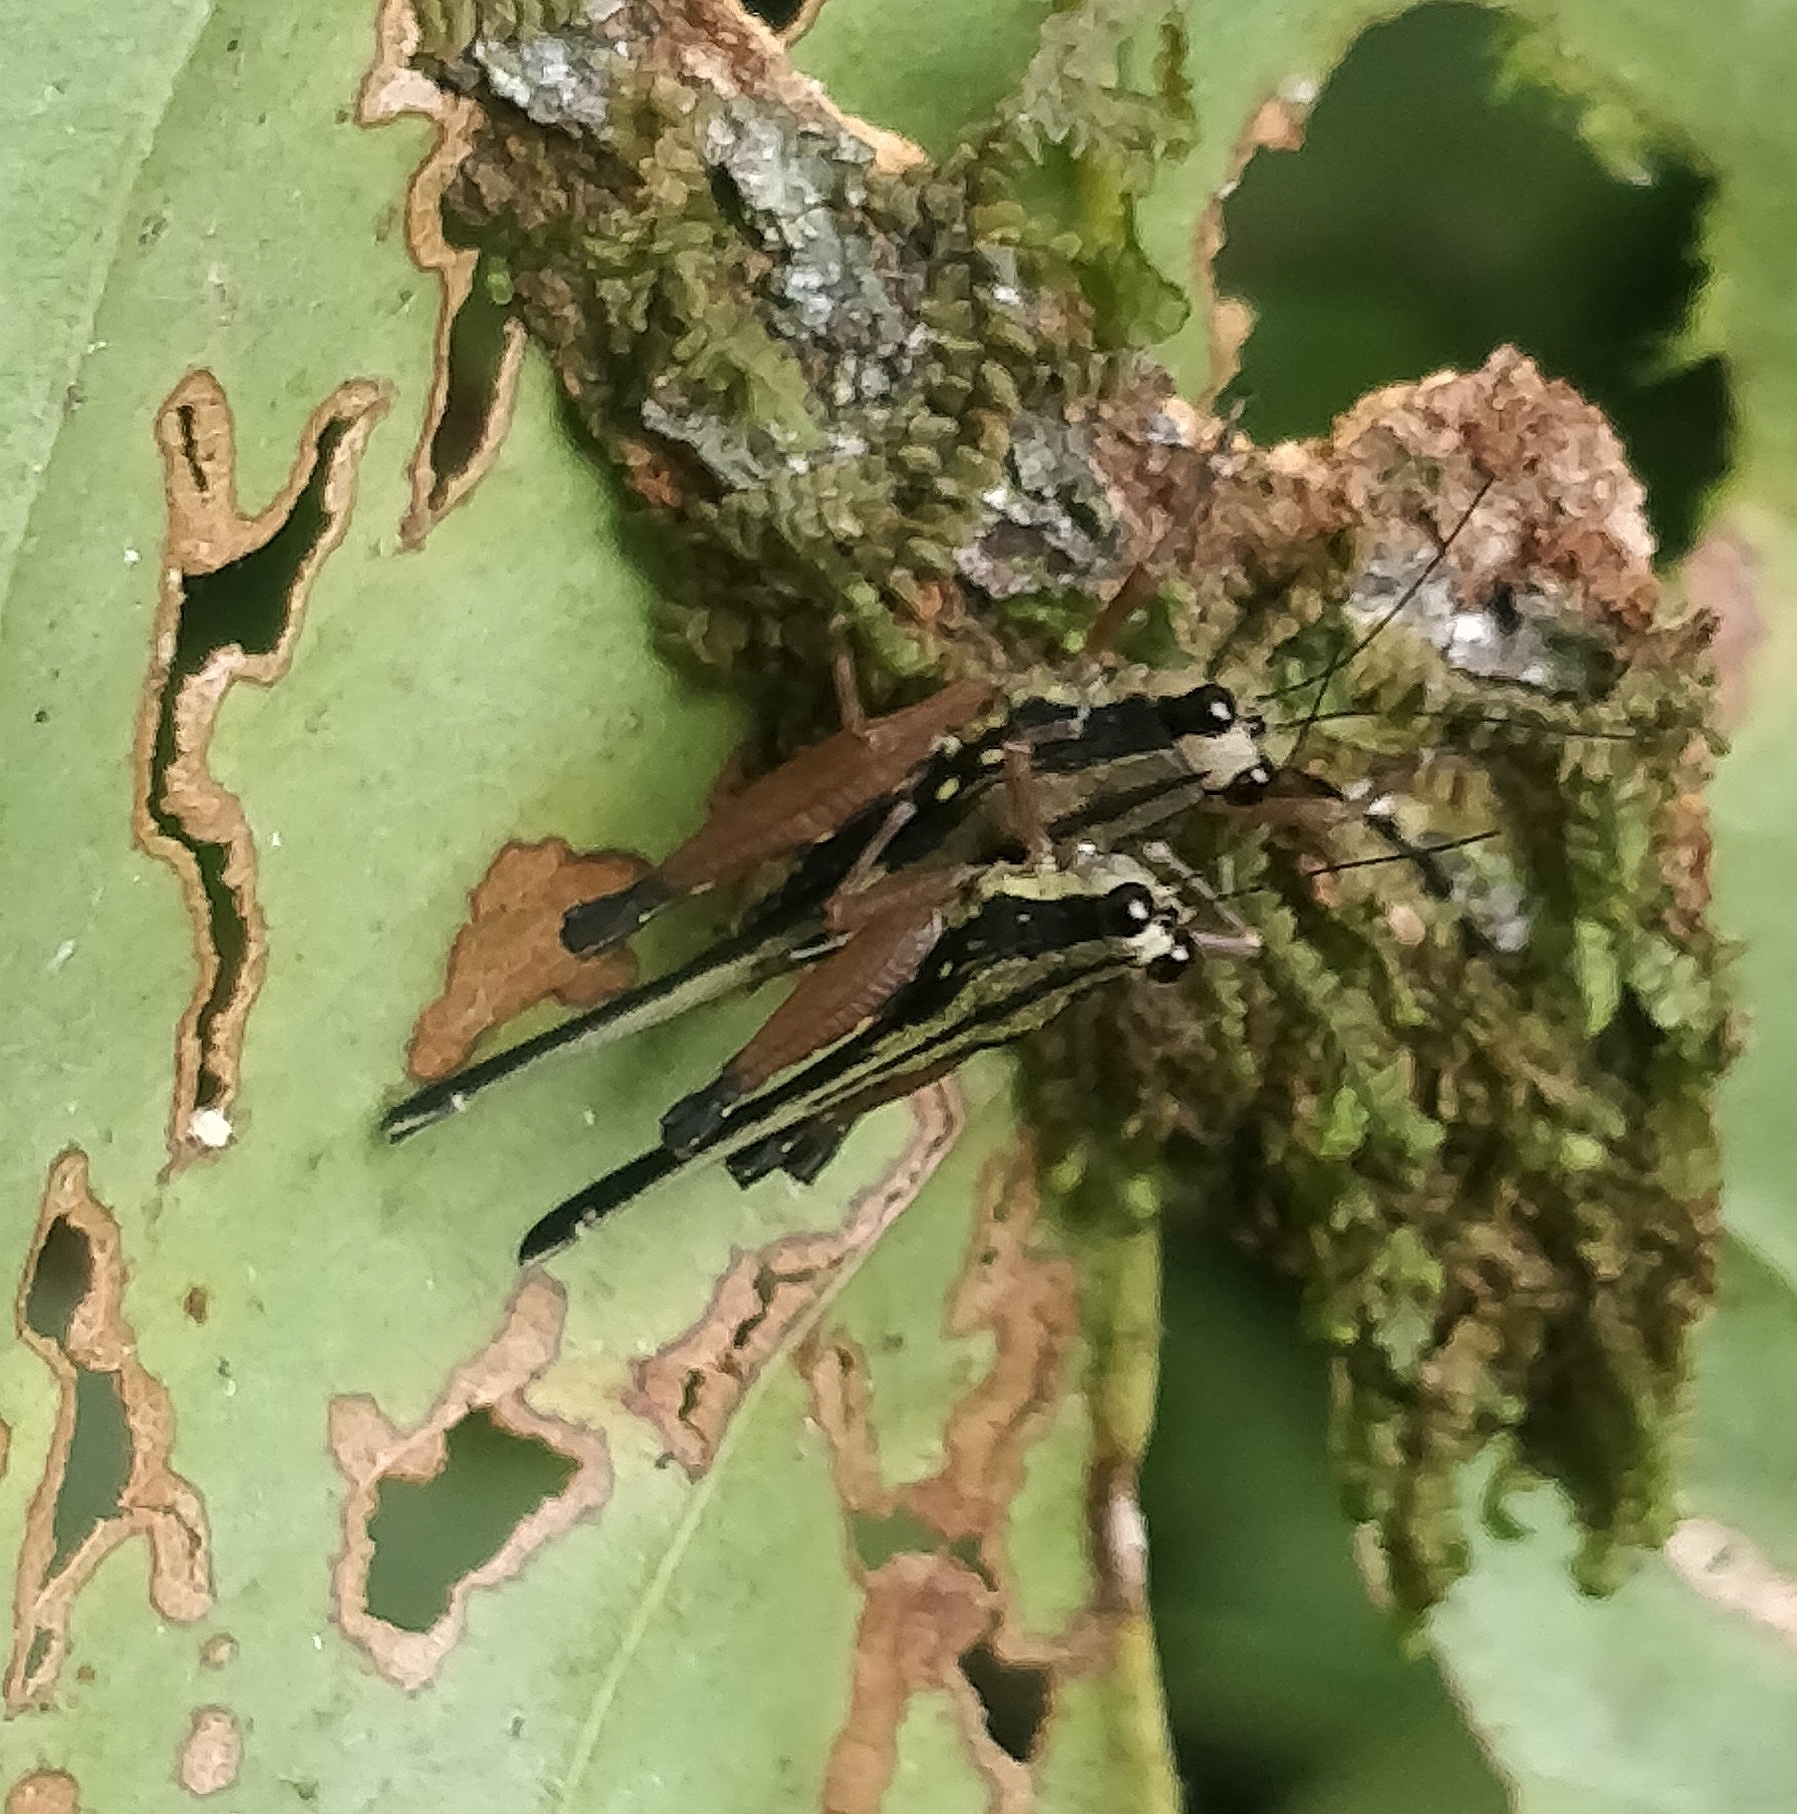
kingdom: Animalia
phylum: Arthropoda
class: Insecta
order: Orthoptera
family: Tetrigidae
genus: Scaria
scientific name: Scaria fasciata
